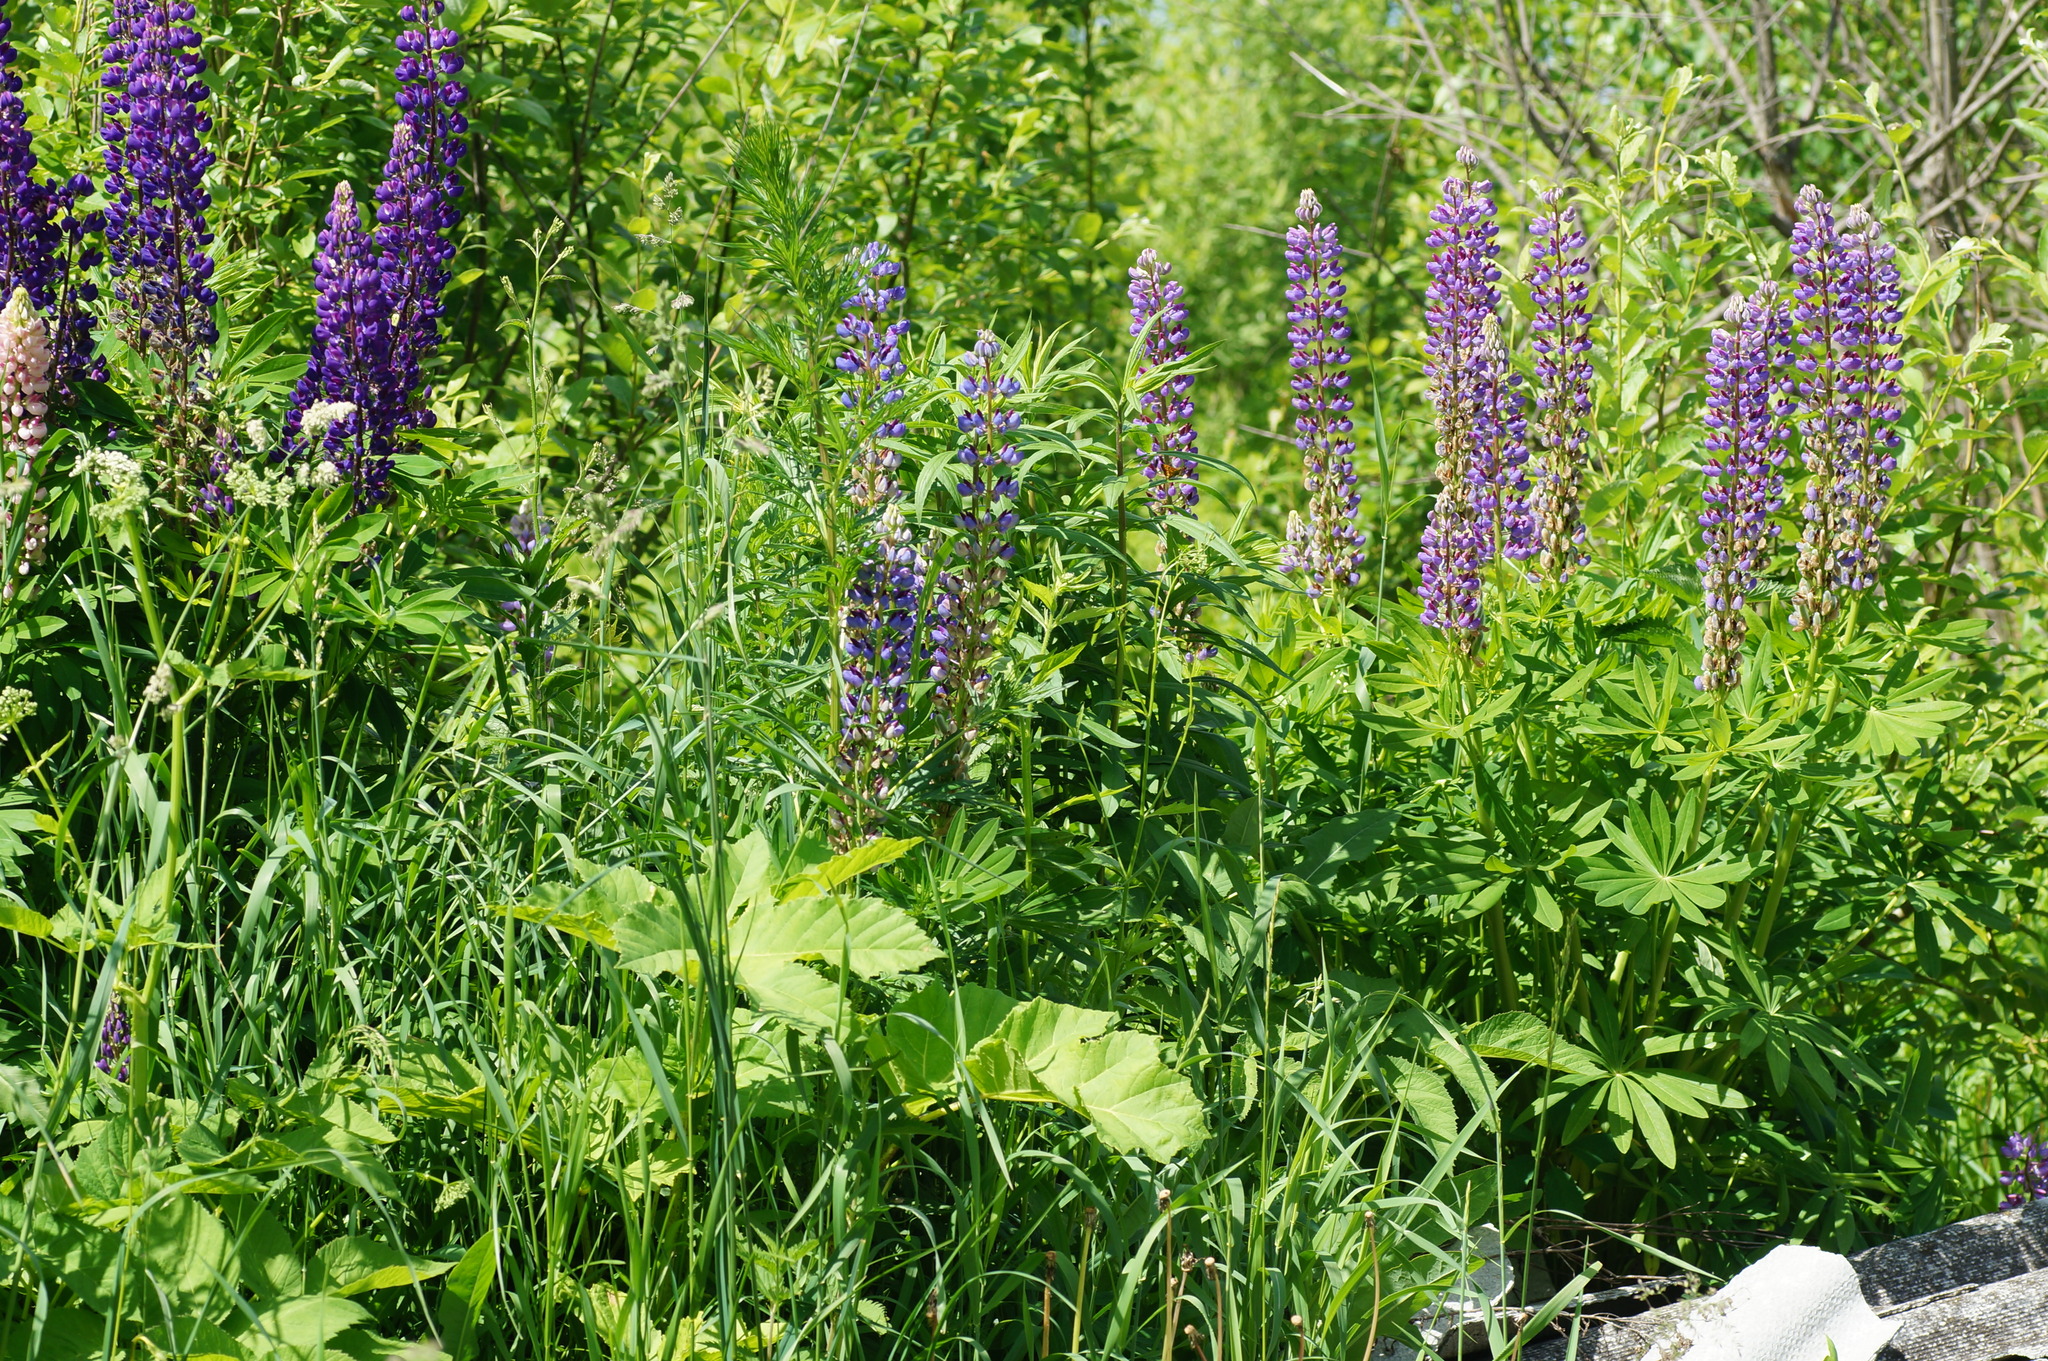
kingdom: Plantae
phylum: Tracheophyta
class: Magnoliopsida
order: Fabales
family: Fabaceae
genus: Lupinus
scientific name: Lupinus polyphyllus
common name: Garden lupin
